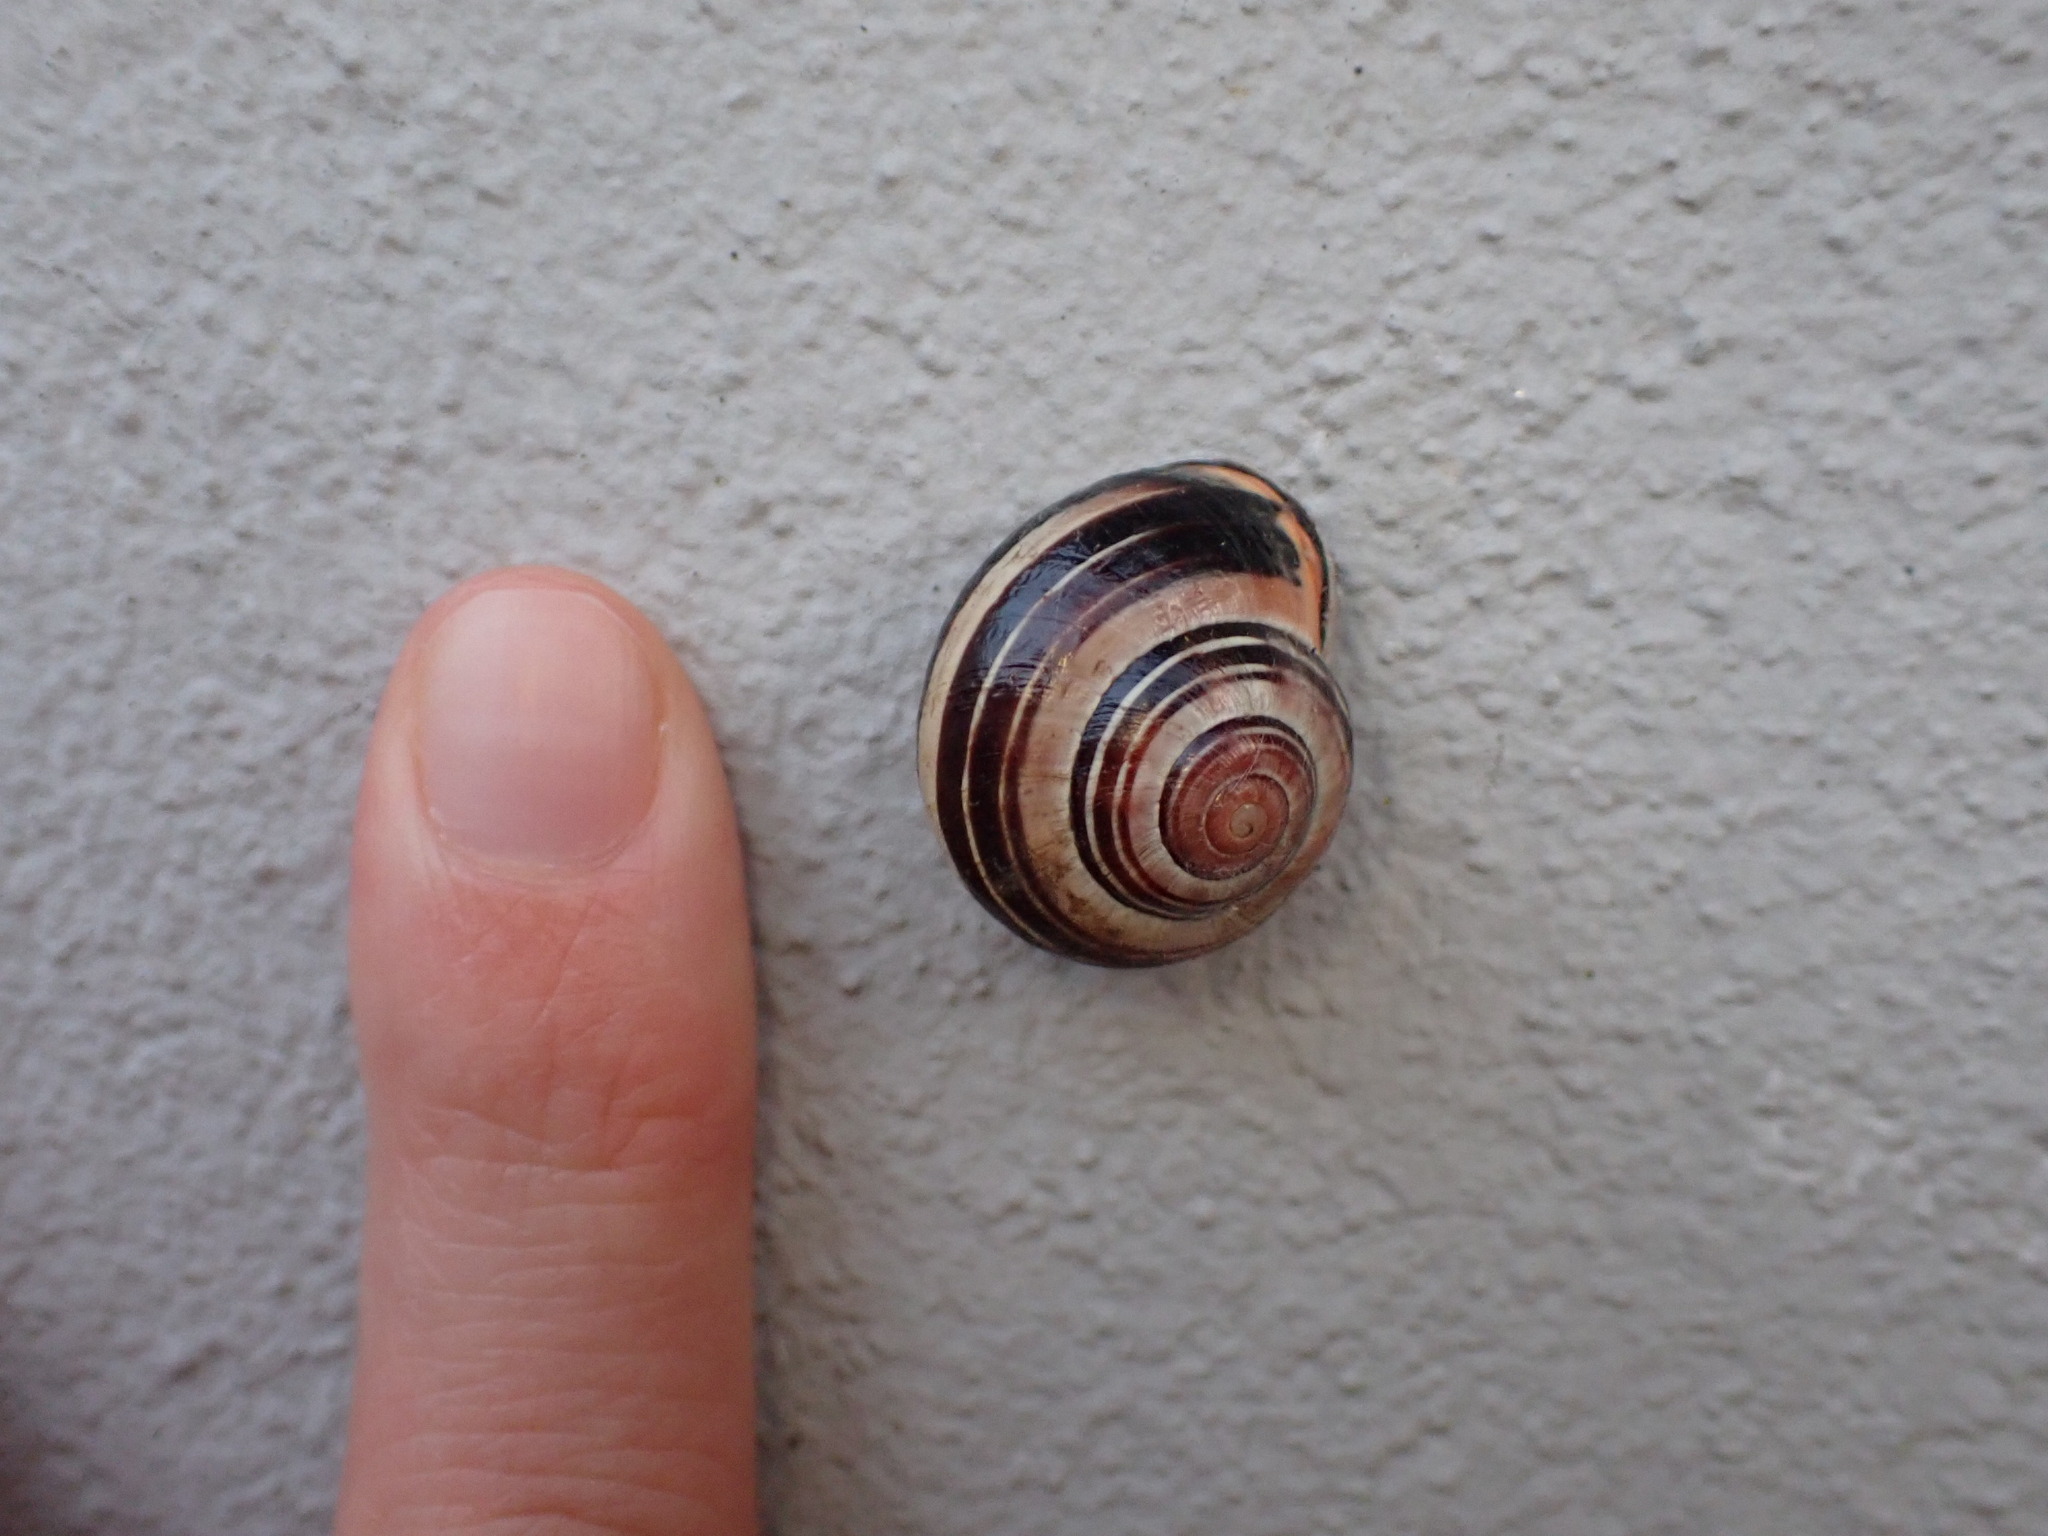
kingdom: Animalia
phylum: Mollusca
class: Gastropoda
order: Stylommatophora
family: Helicidae
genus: Cepaea
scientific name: Cepaea nemoralis
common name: Grovesnail
